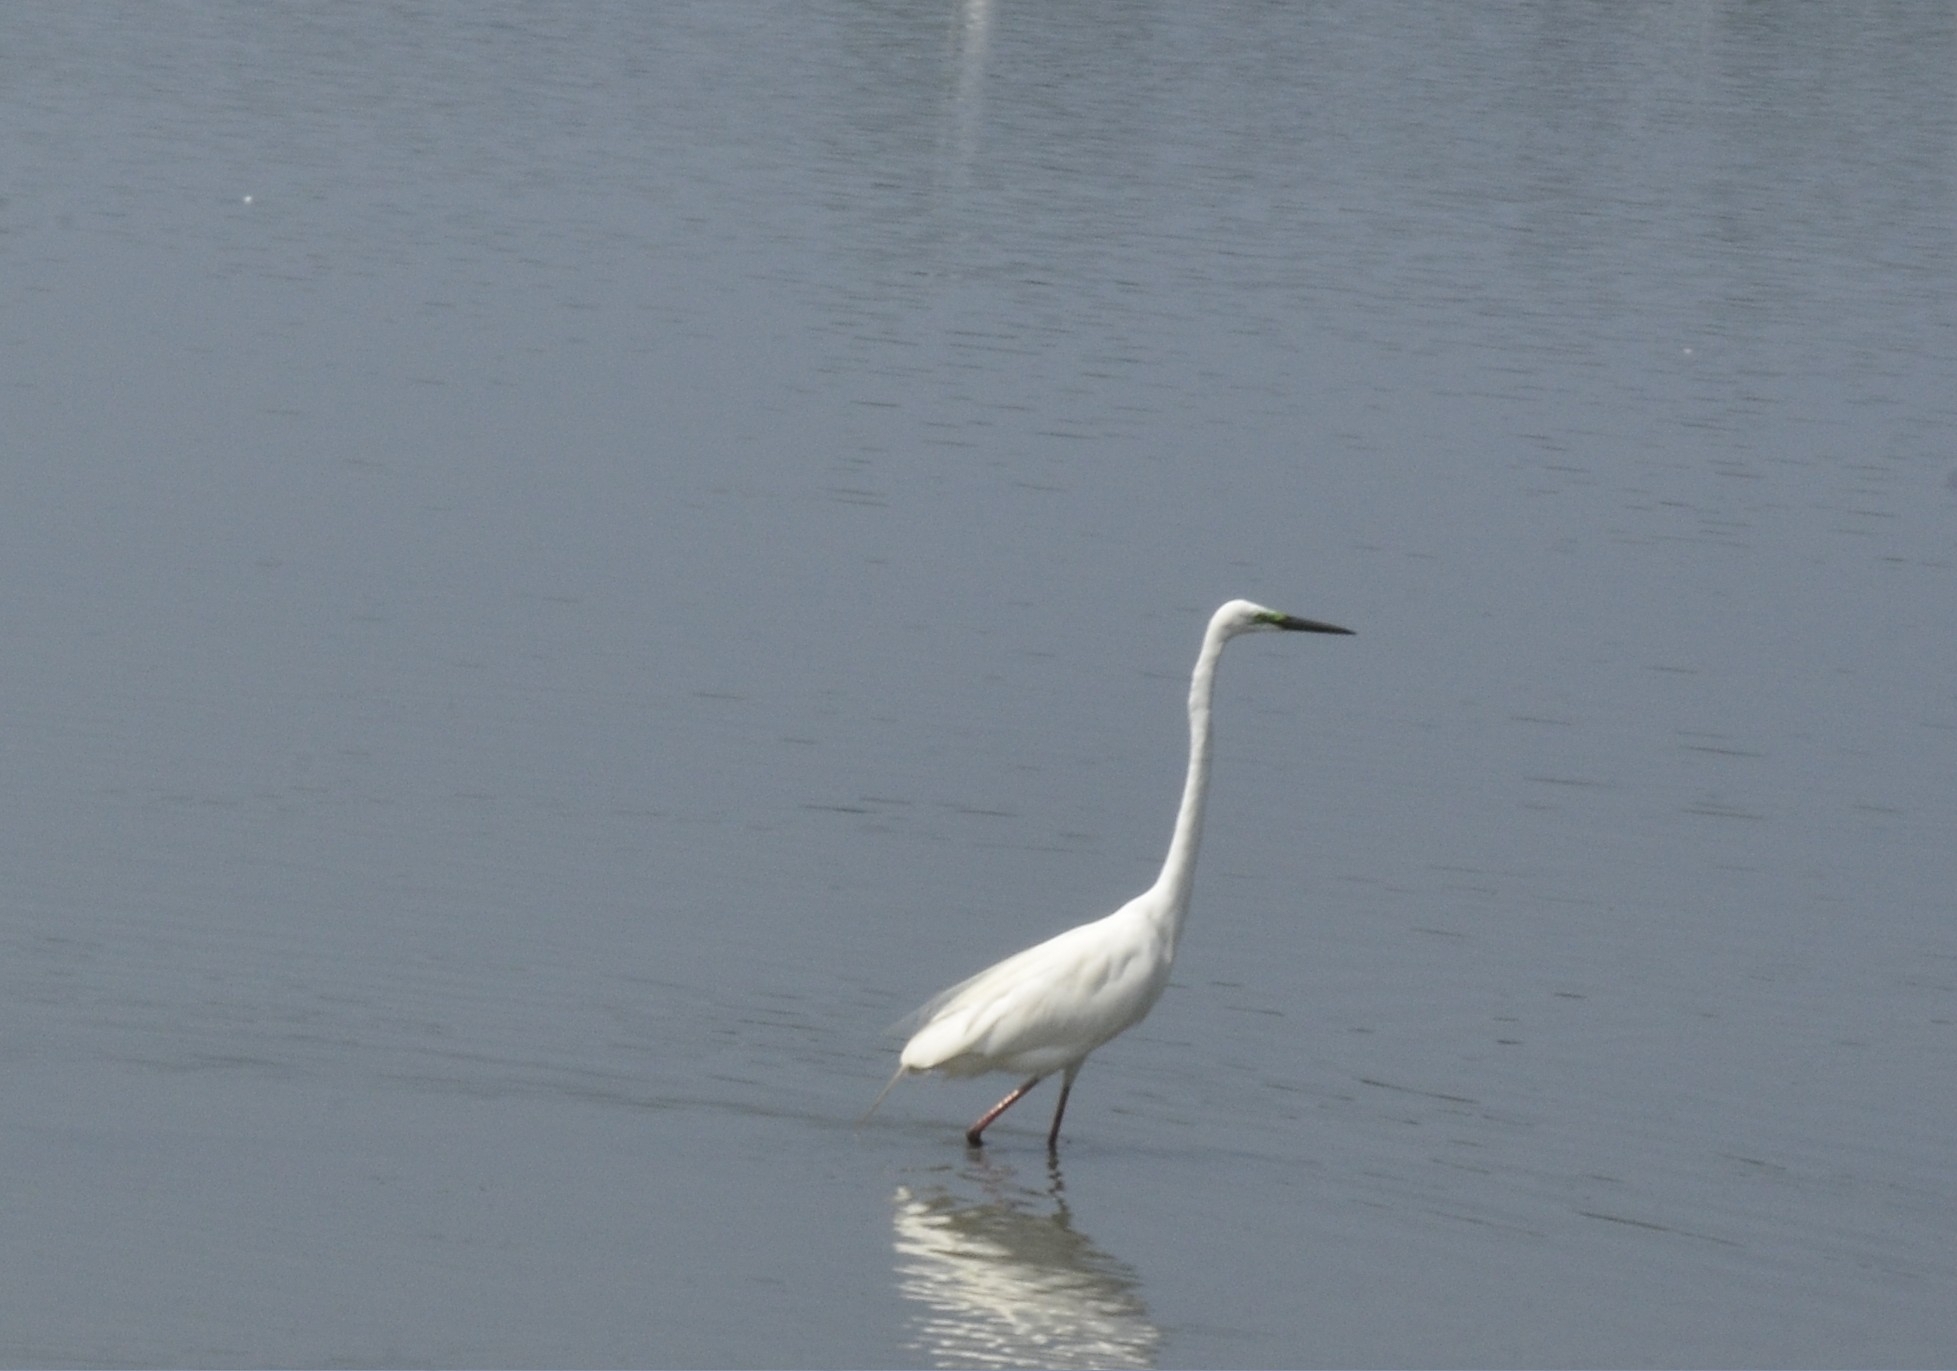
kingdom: Animalia
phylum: Chordata
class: Aves
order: Pelecaniformes
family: Ardeidae
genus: Ardea
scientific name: Ardea alba
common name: Great egret
